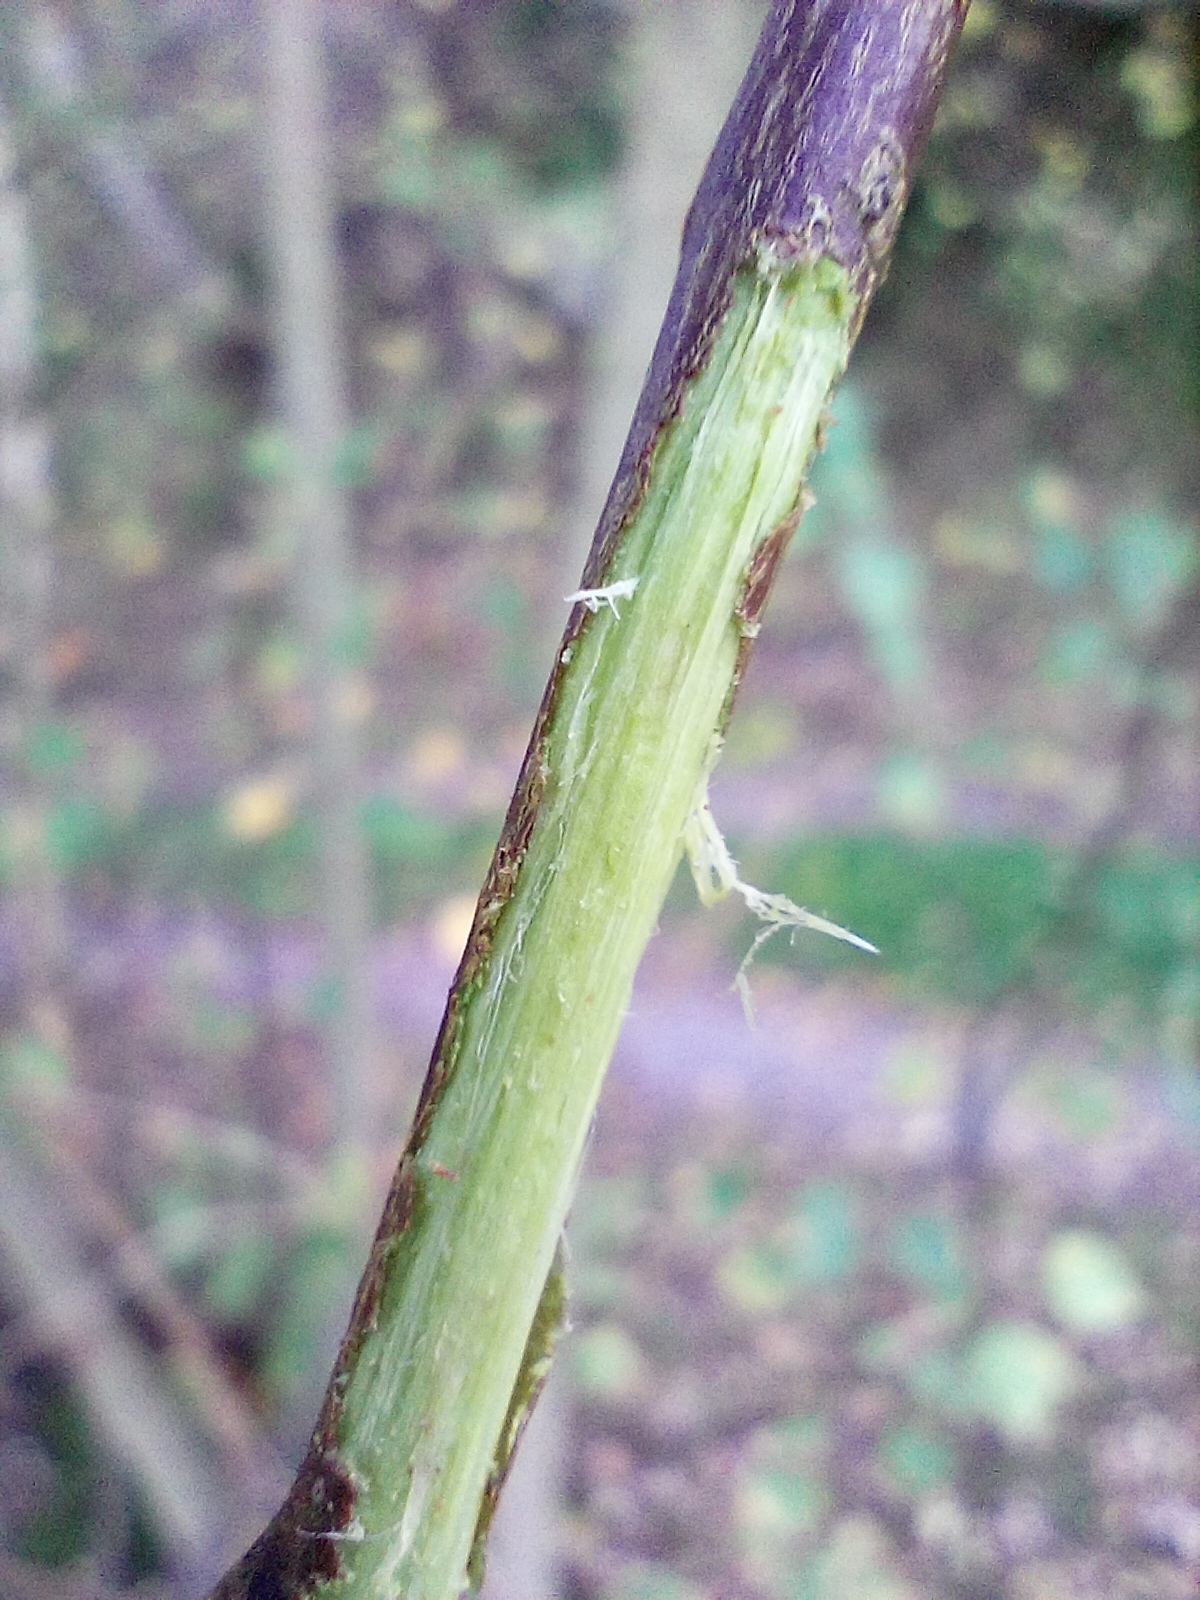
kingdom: Plantae
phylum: Tracheophyta
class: Magnoliopsida
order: Malpighiales
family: Salicaceae
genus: Salix
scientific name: Salix caprea
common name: Goat willow
